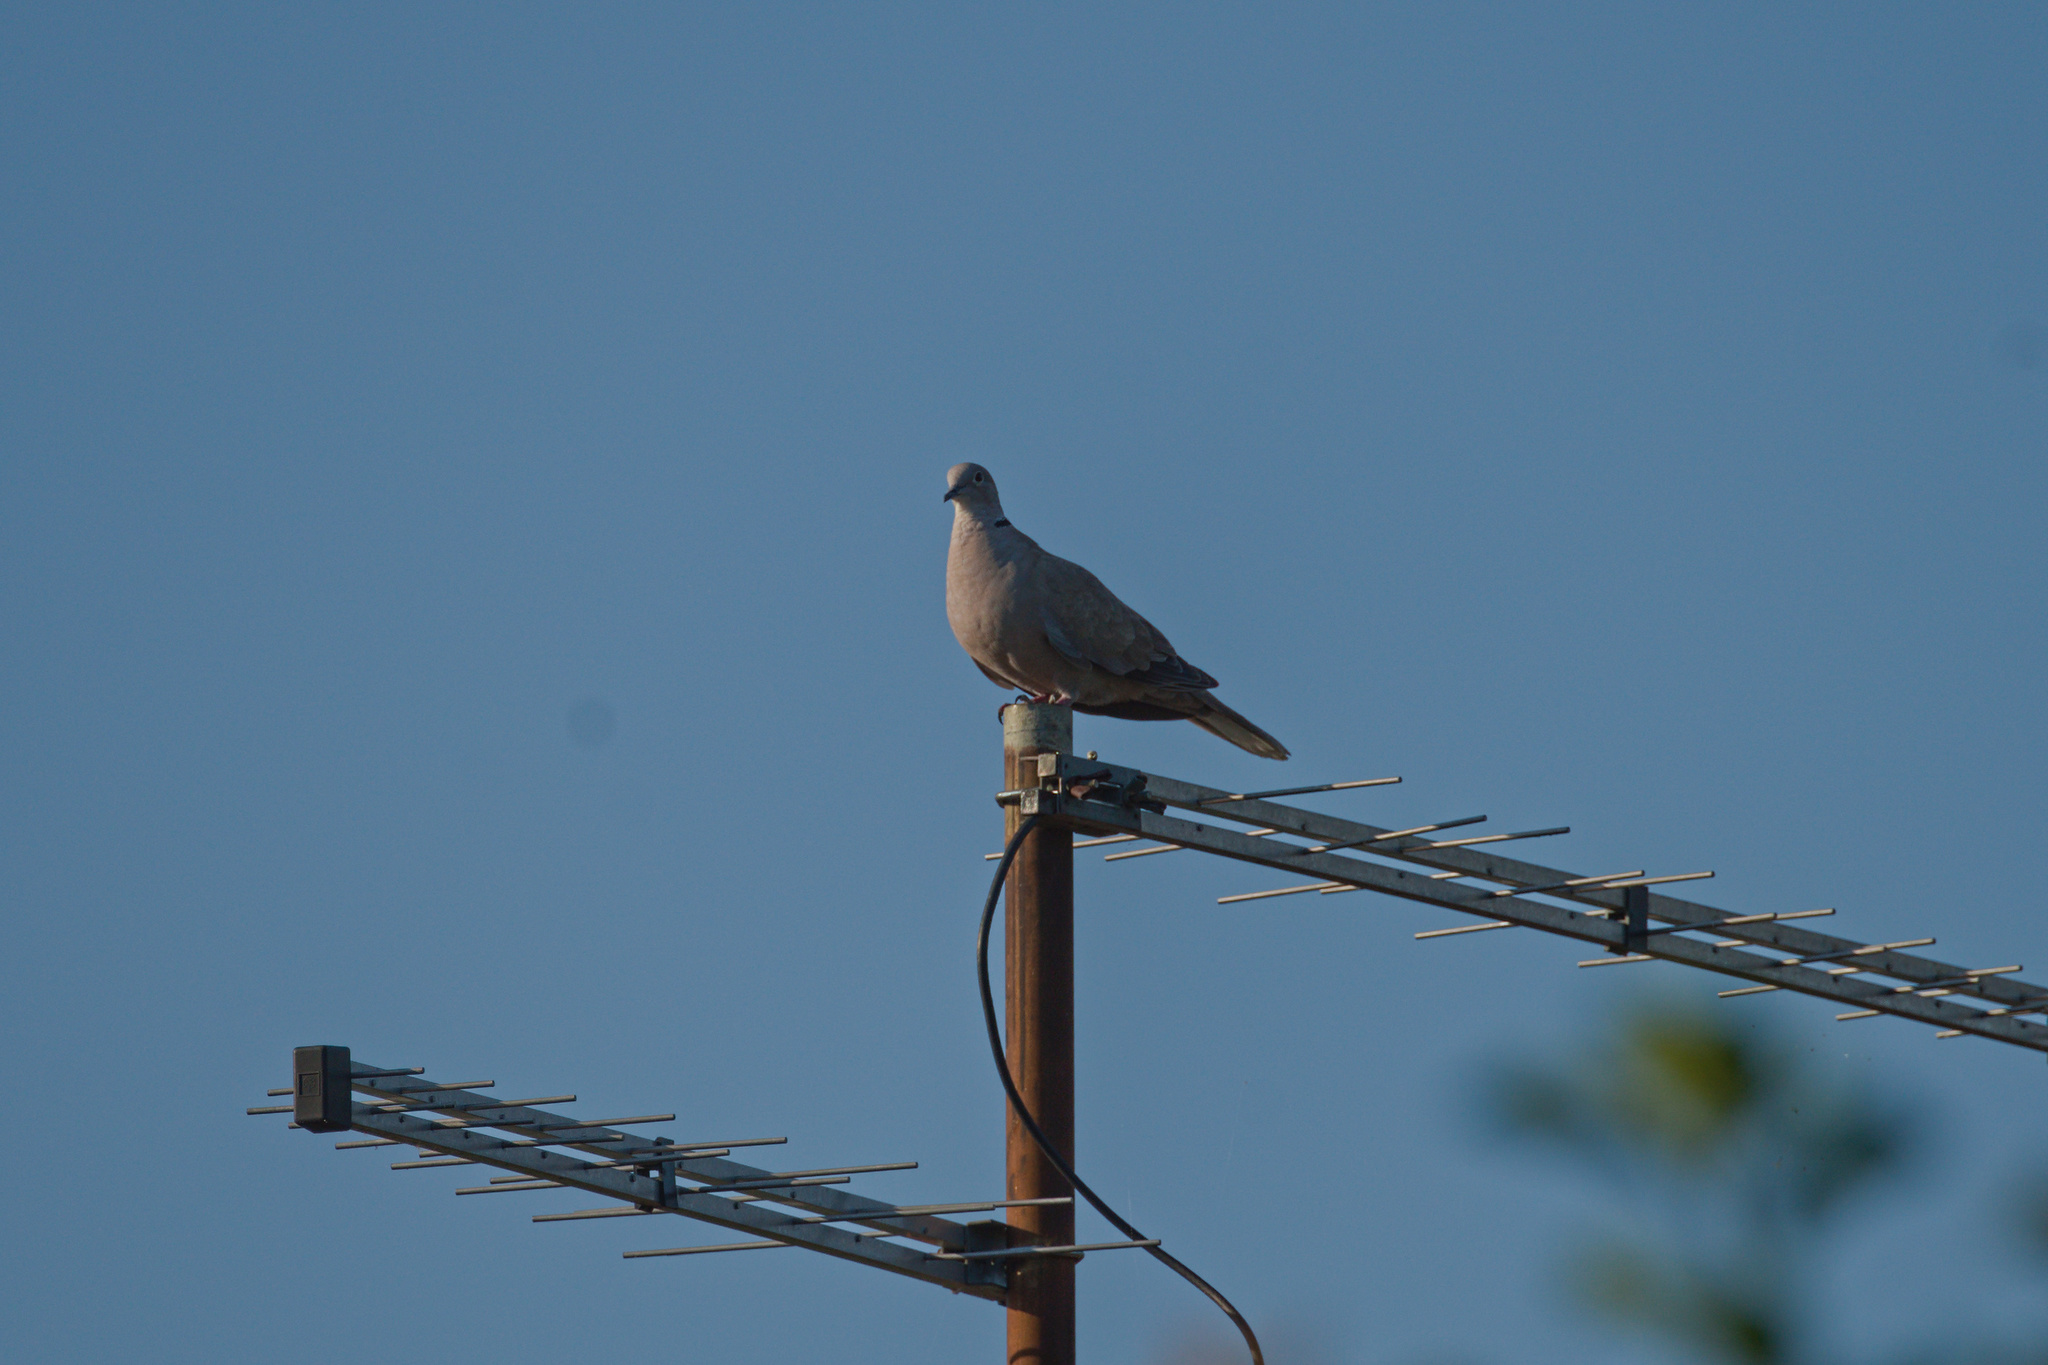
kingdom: Animalia
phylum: Chordata
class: Aves
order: Columbiformes
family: Columbidae
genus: Streptopelia
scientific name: Streptopelia decaocto
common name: Eurasian collared dove
